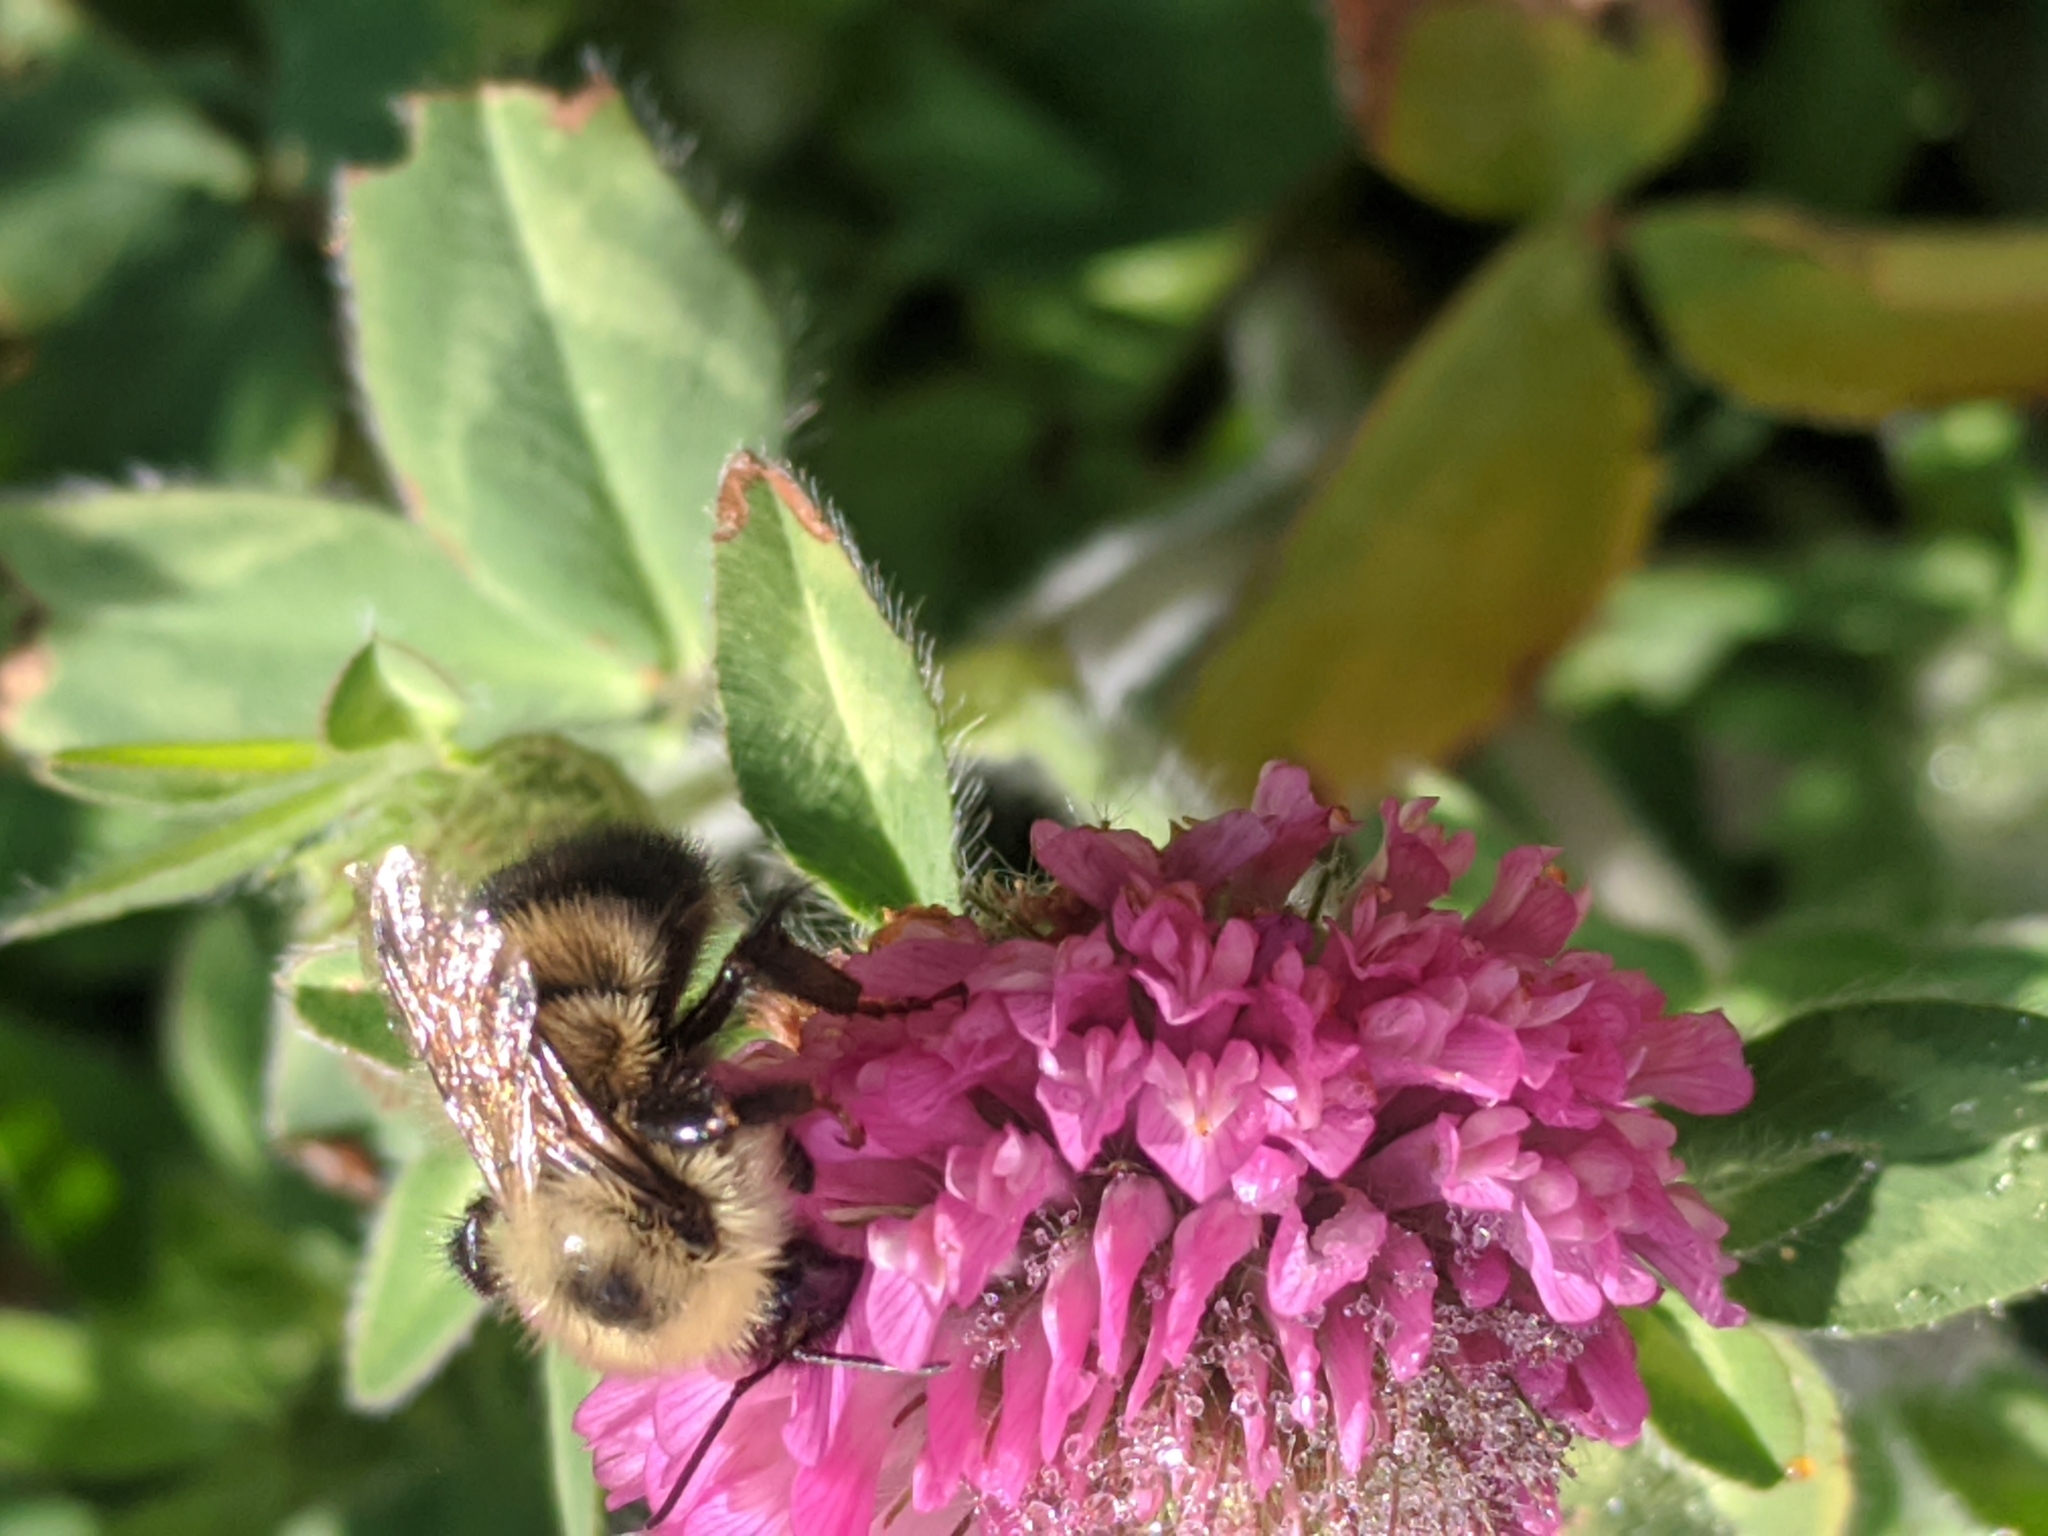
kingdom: Animalia
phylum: Arthropoda
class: Insecta
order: Hymenoptera
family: Apidae
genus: Pyrobombus
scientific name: Pyrobombus
